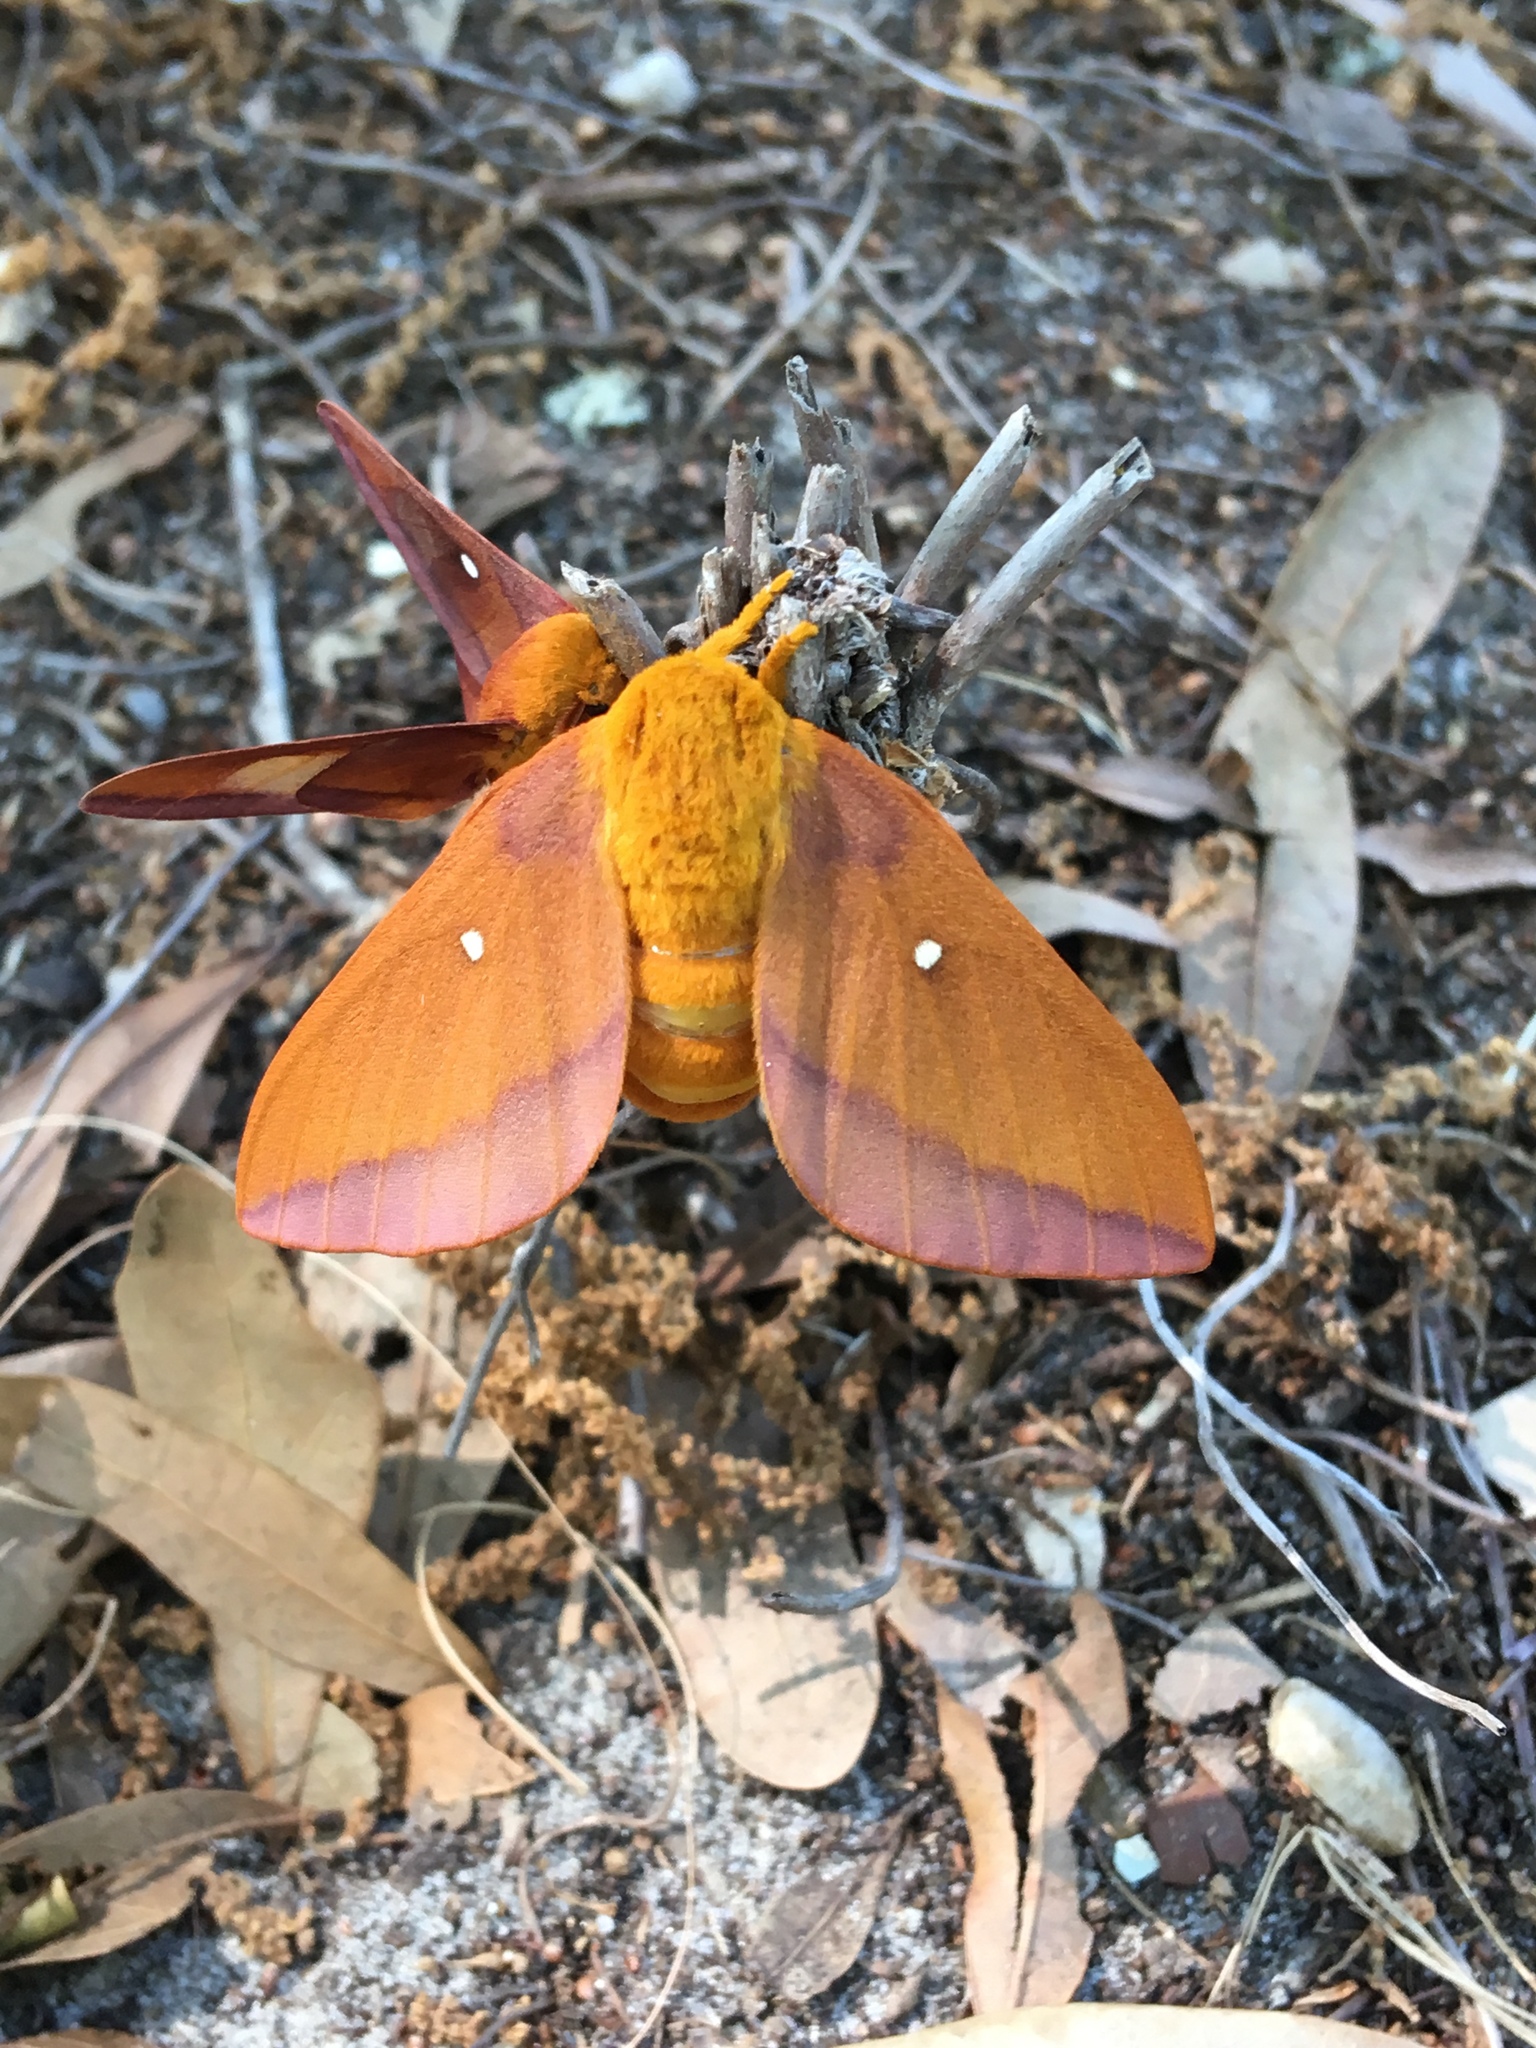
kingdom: Animalia
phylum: Arthropoda
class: Insecta
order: Lepidoptera
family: Saturniidae
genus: Anisota
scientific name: Anisota virginiensis
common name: Pink striped oakworm moth
